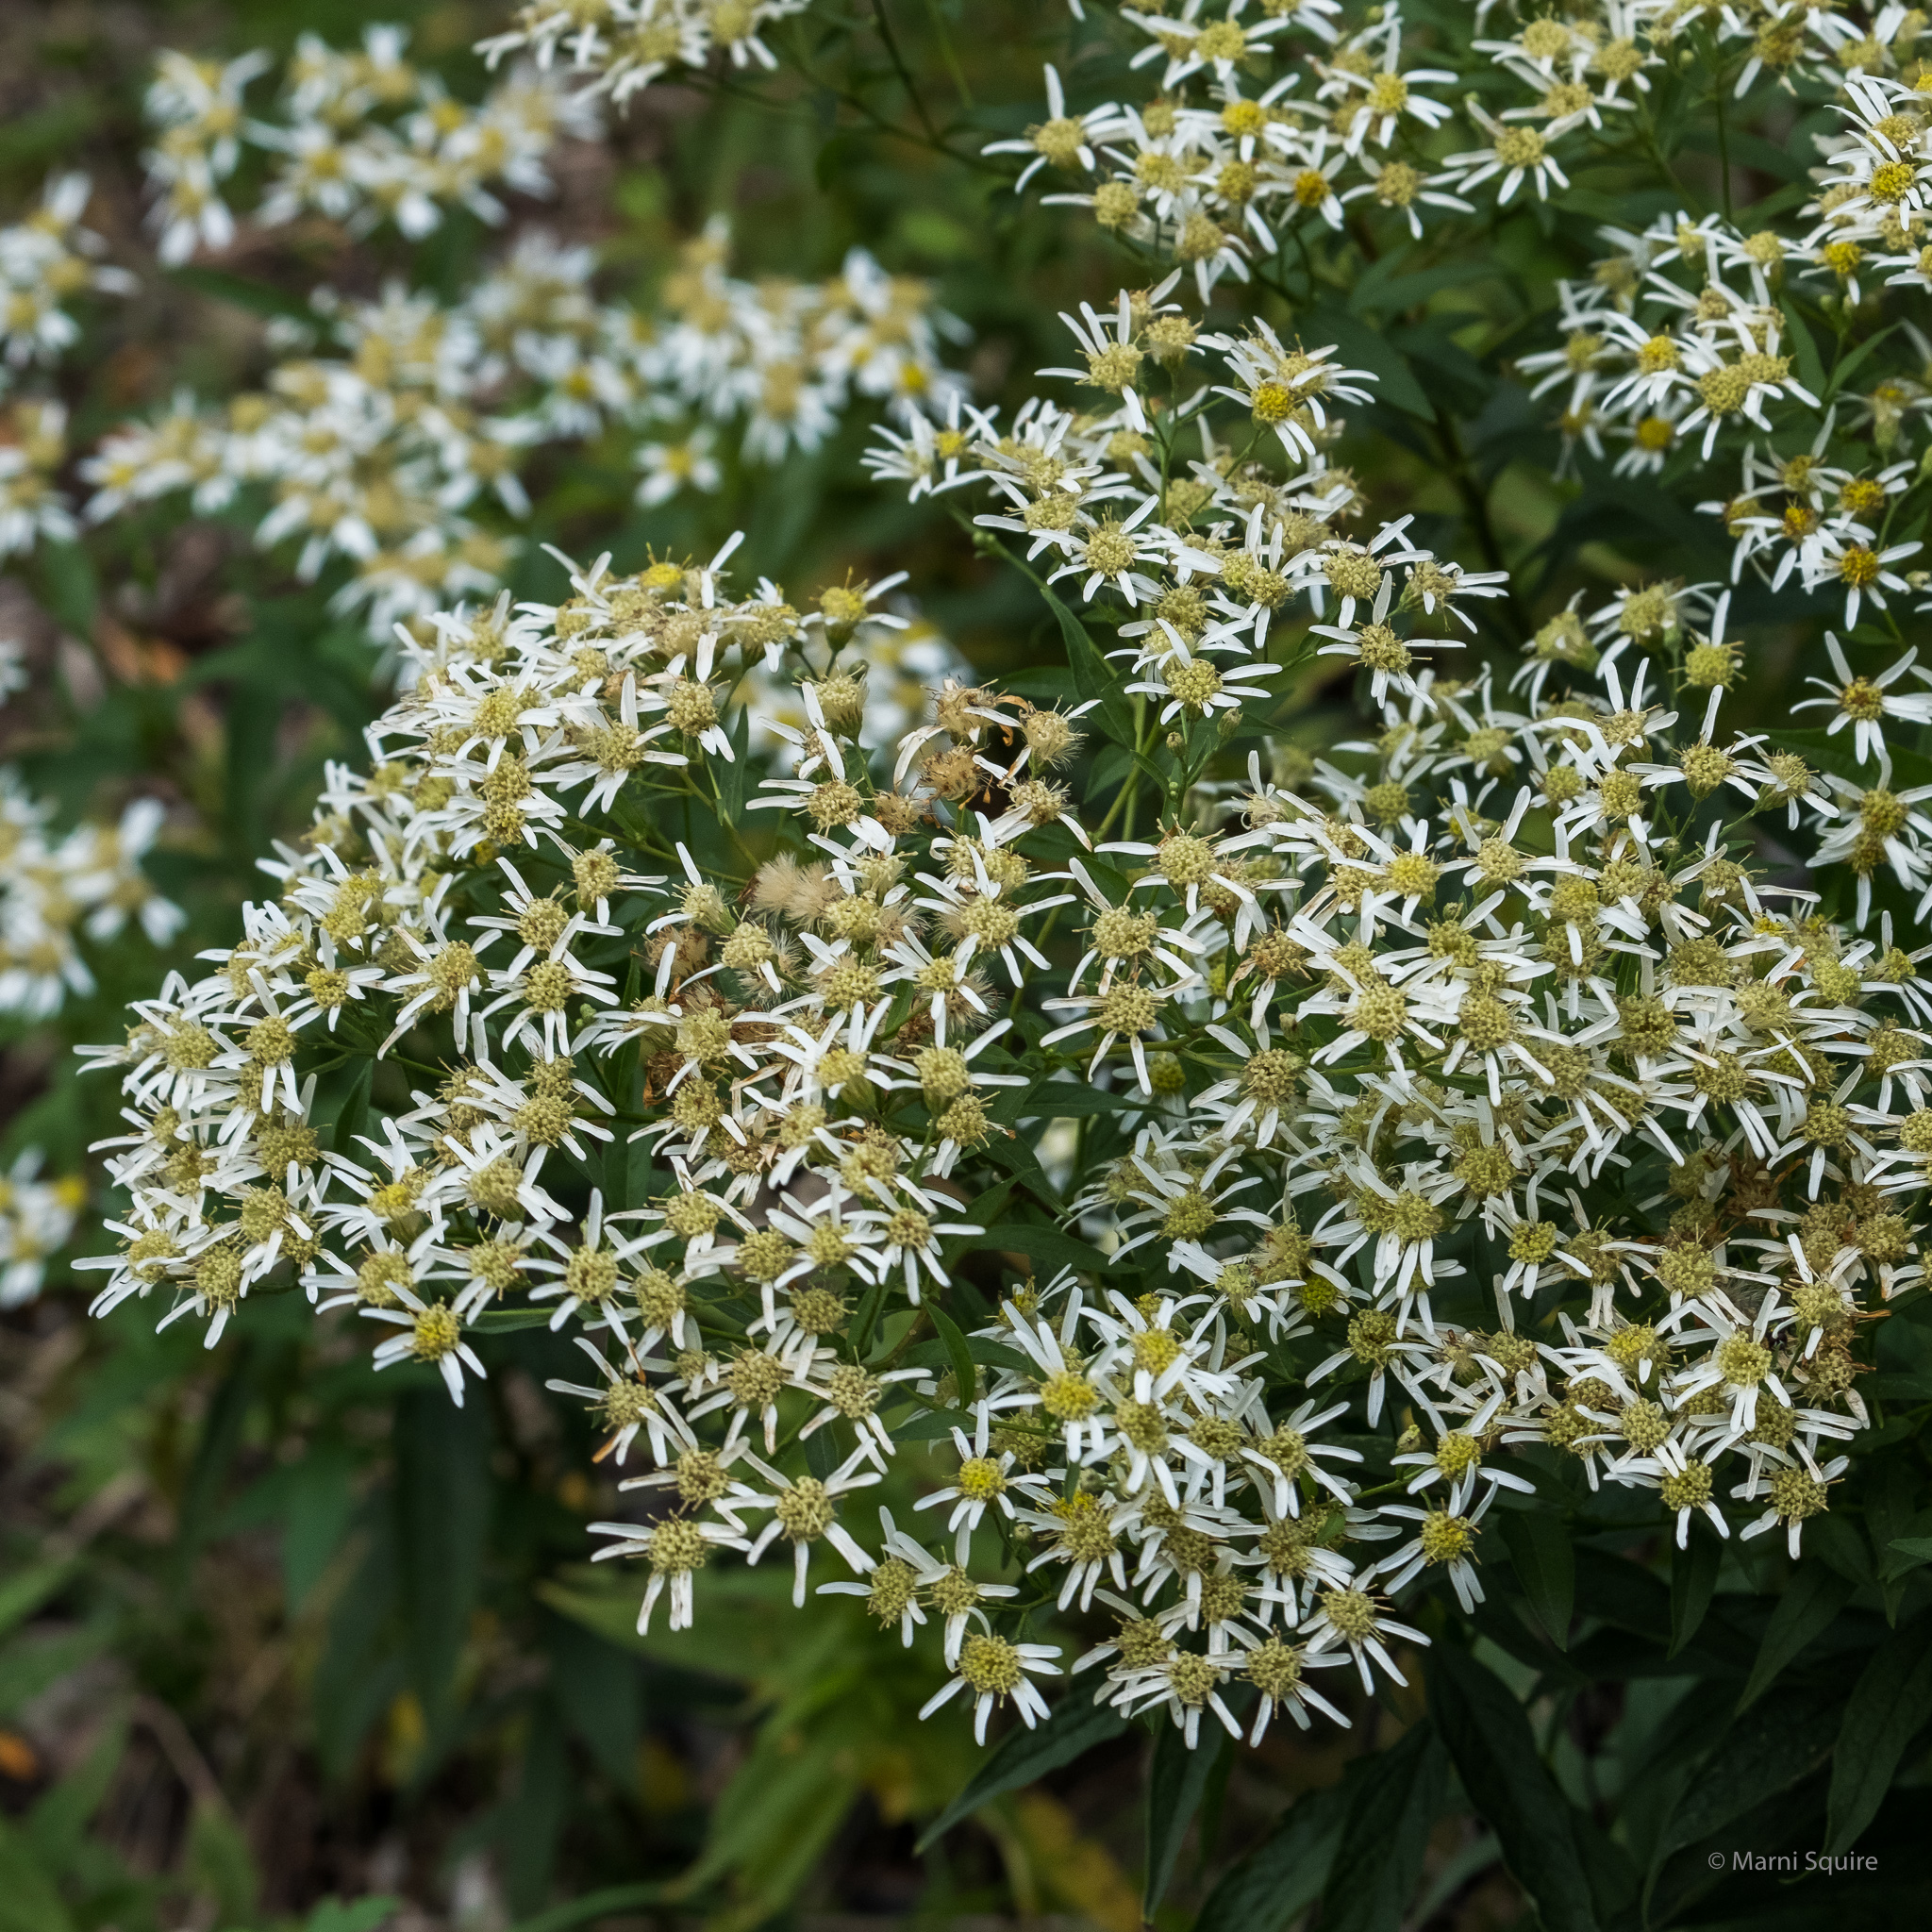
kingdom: Plantae
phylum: Tracheophyta
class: Magnoliopsida
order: Asterales
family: Asteraceae
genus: Doellingeria
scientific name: Doellingeria umbellata
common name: Flat-top white aster
